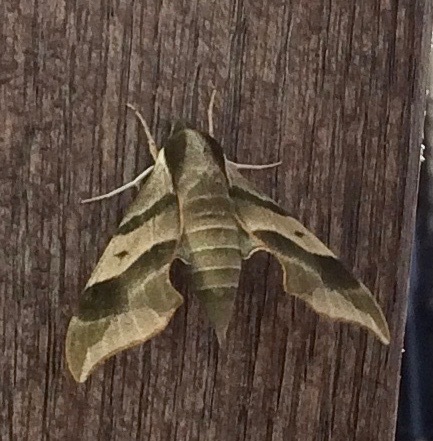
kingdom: Animalia
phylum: Arthropoda
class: Insecta
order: Lepidoptera
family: Sphingidae
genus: Darapsa
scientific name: Darapsa myron
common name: Hog sphinx
